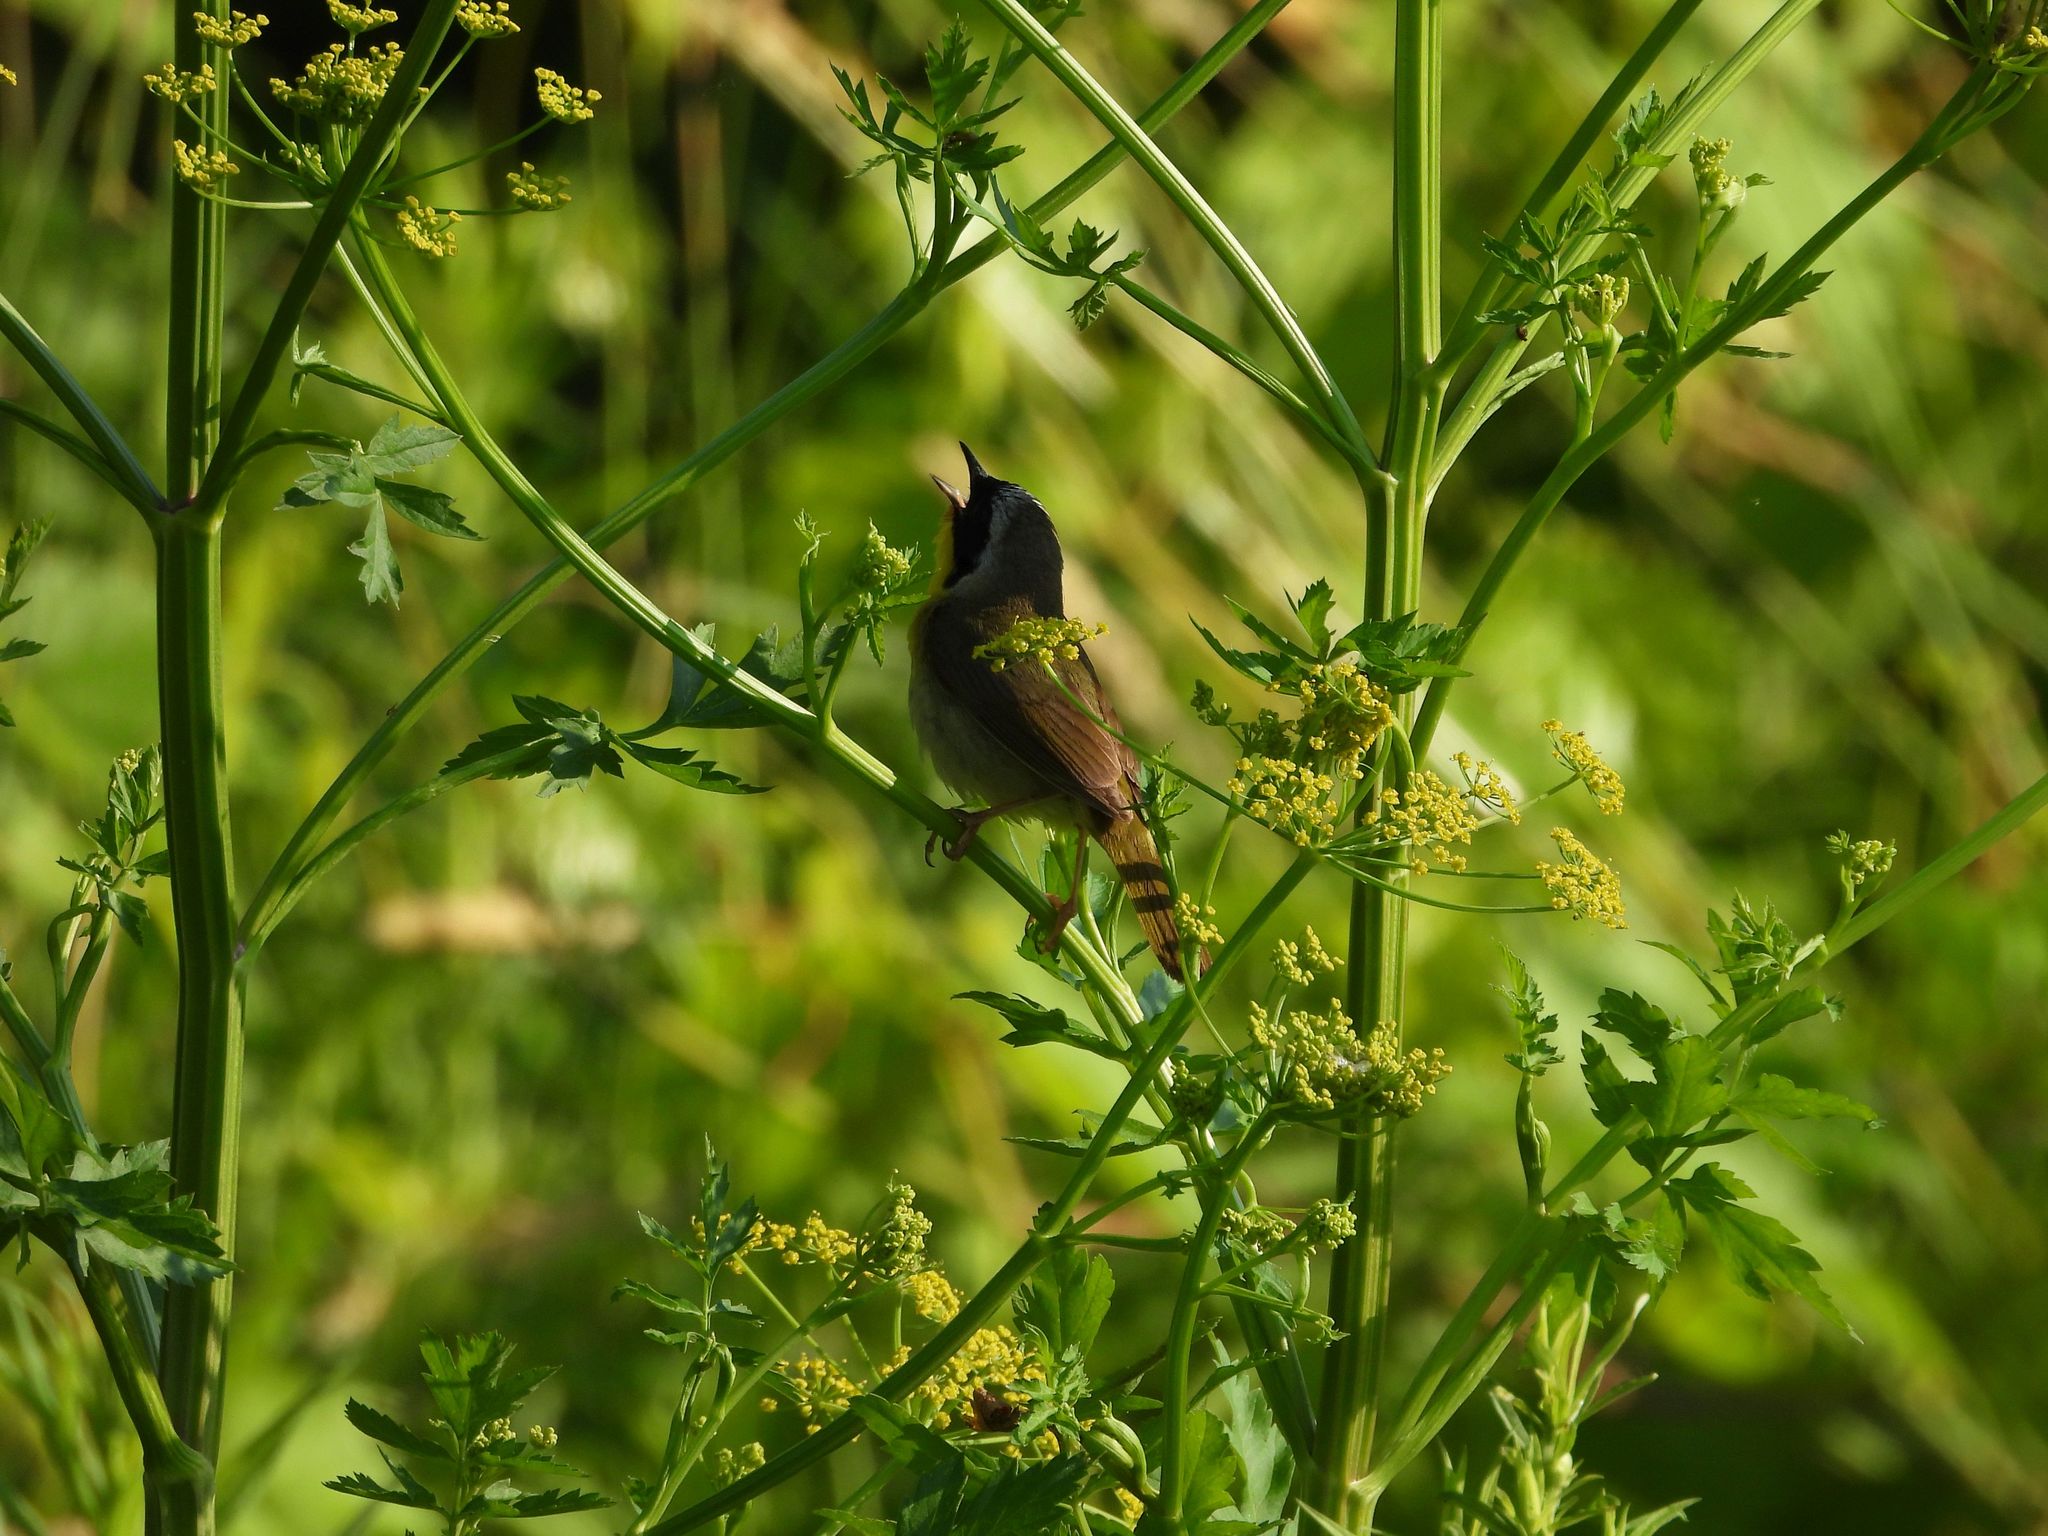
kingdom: Animalia
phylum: Chordata
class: Aves
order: Passeriformes
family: Parulidae
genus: Geothlypis
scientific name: Geothlypis trichas
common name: Common yellowthroat
